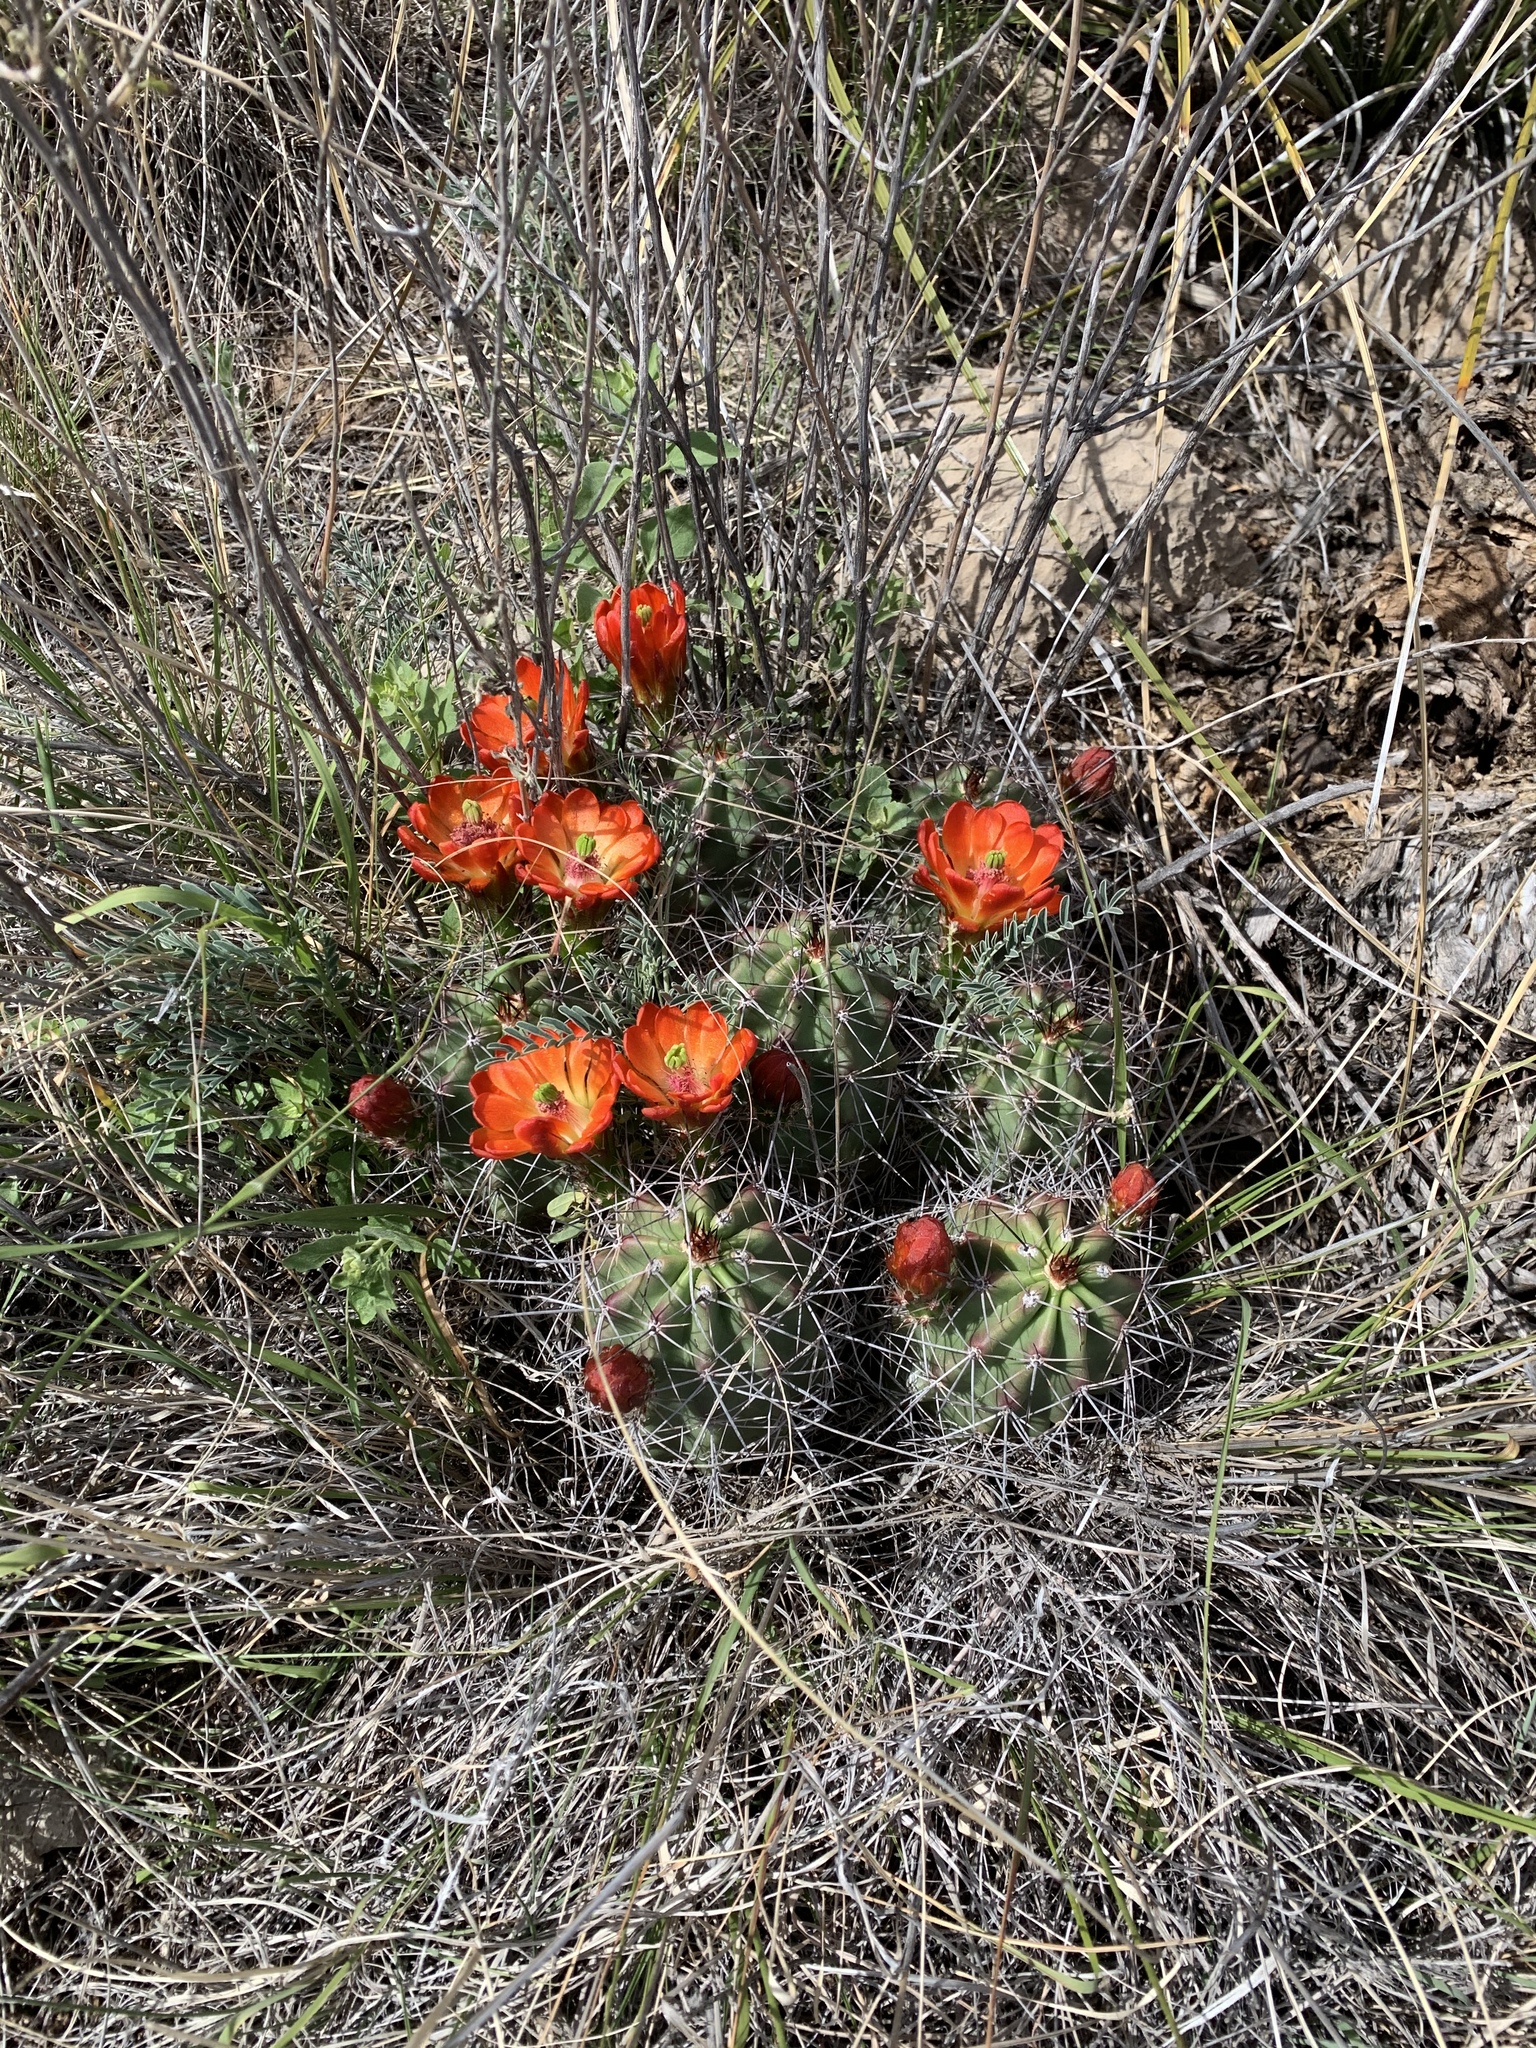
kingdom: Plantae
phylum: Tracheophyta
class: Magnoliopsida
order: Caryophyllales
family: Cactaceae
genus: Echinocereus
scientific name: Echinocereus coccineus
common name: Scarlet hedgehog cactus
